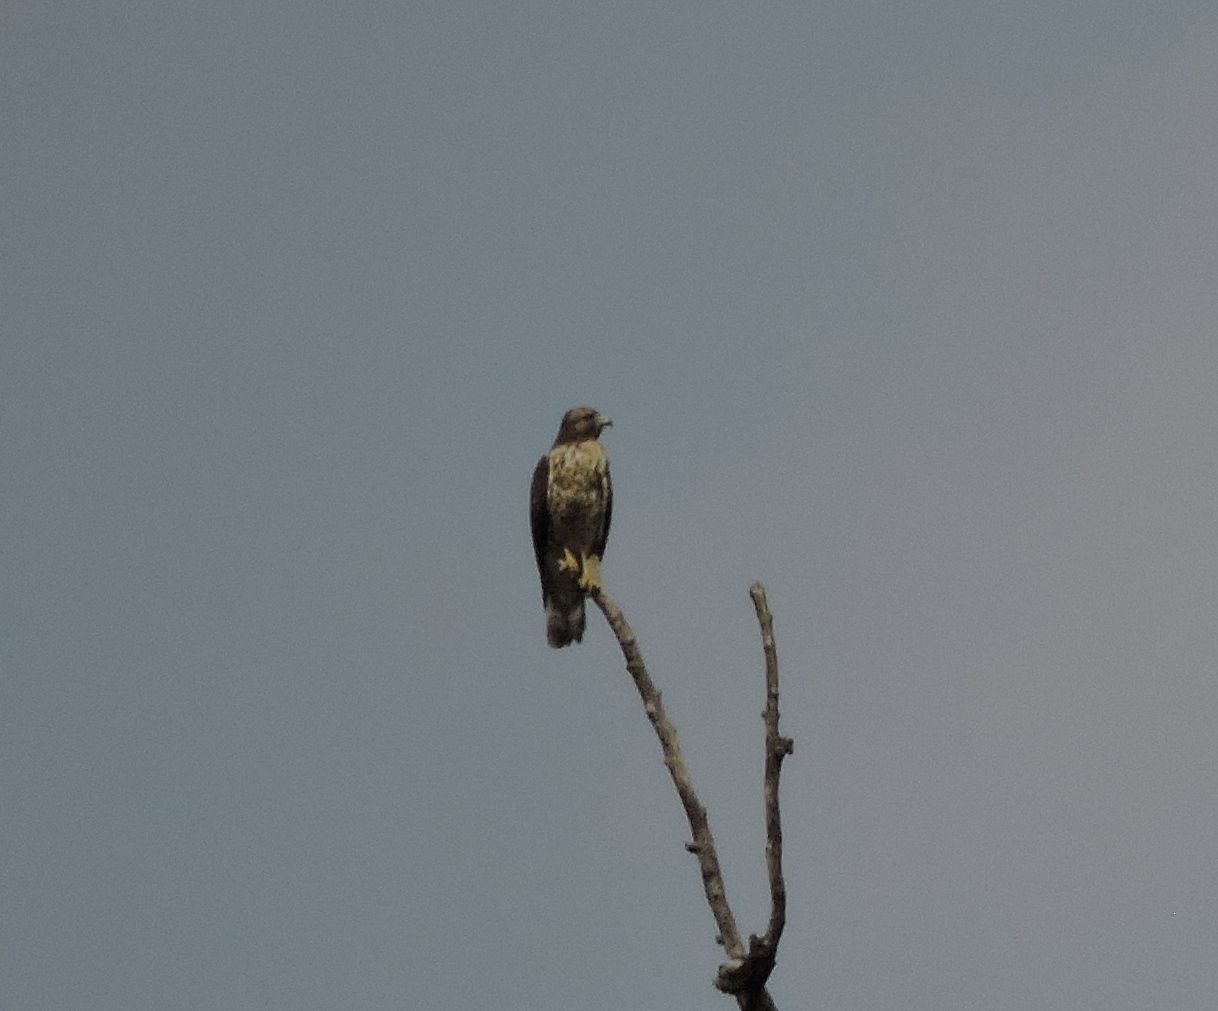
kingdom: Animalia
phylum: Chordata
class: Aves
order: Accipitriformes
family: Accipitridae
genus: Buteo
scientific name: Buteo lineatus
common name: Red-shouldered hawk
